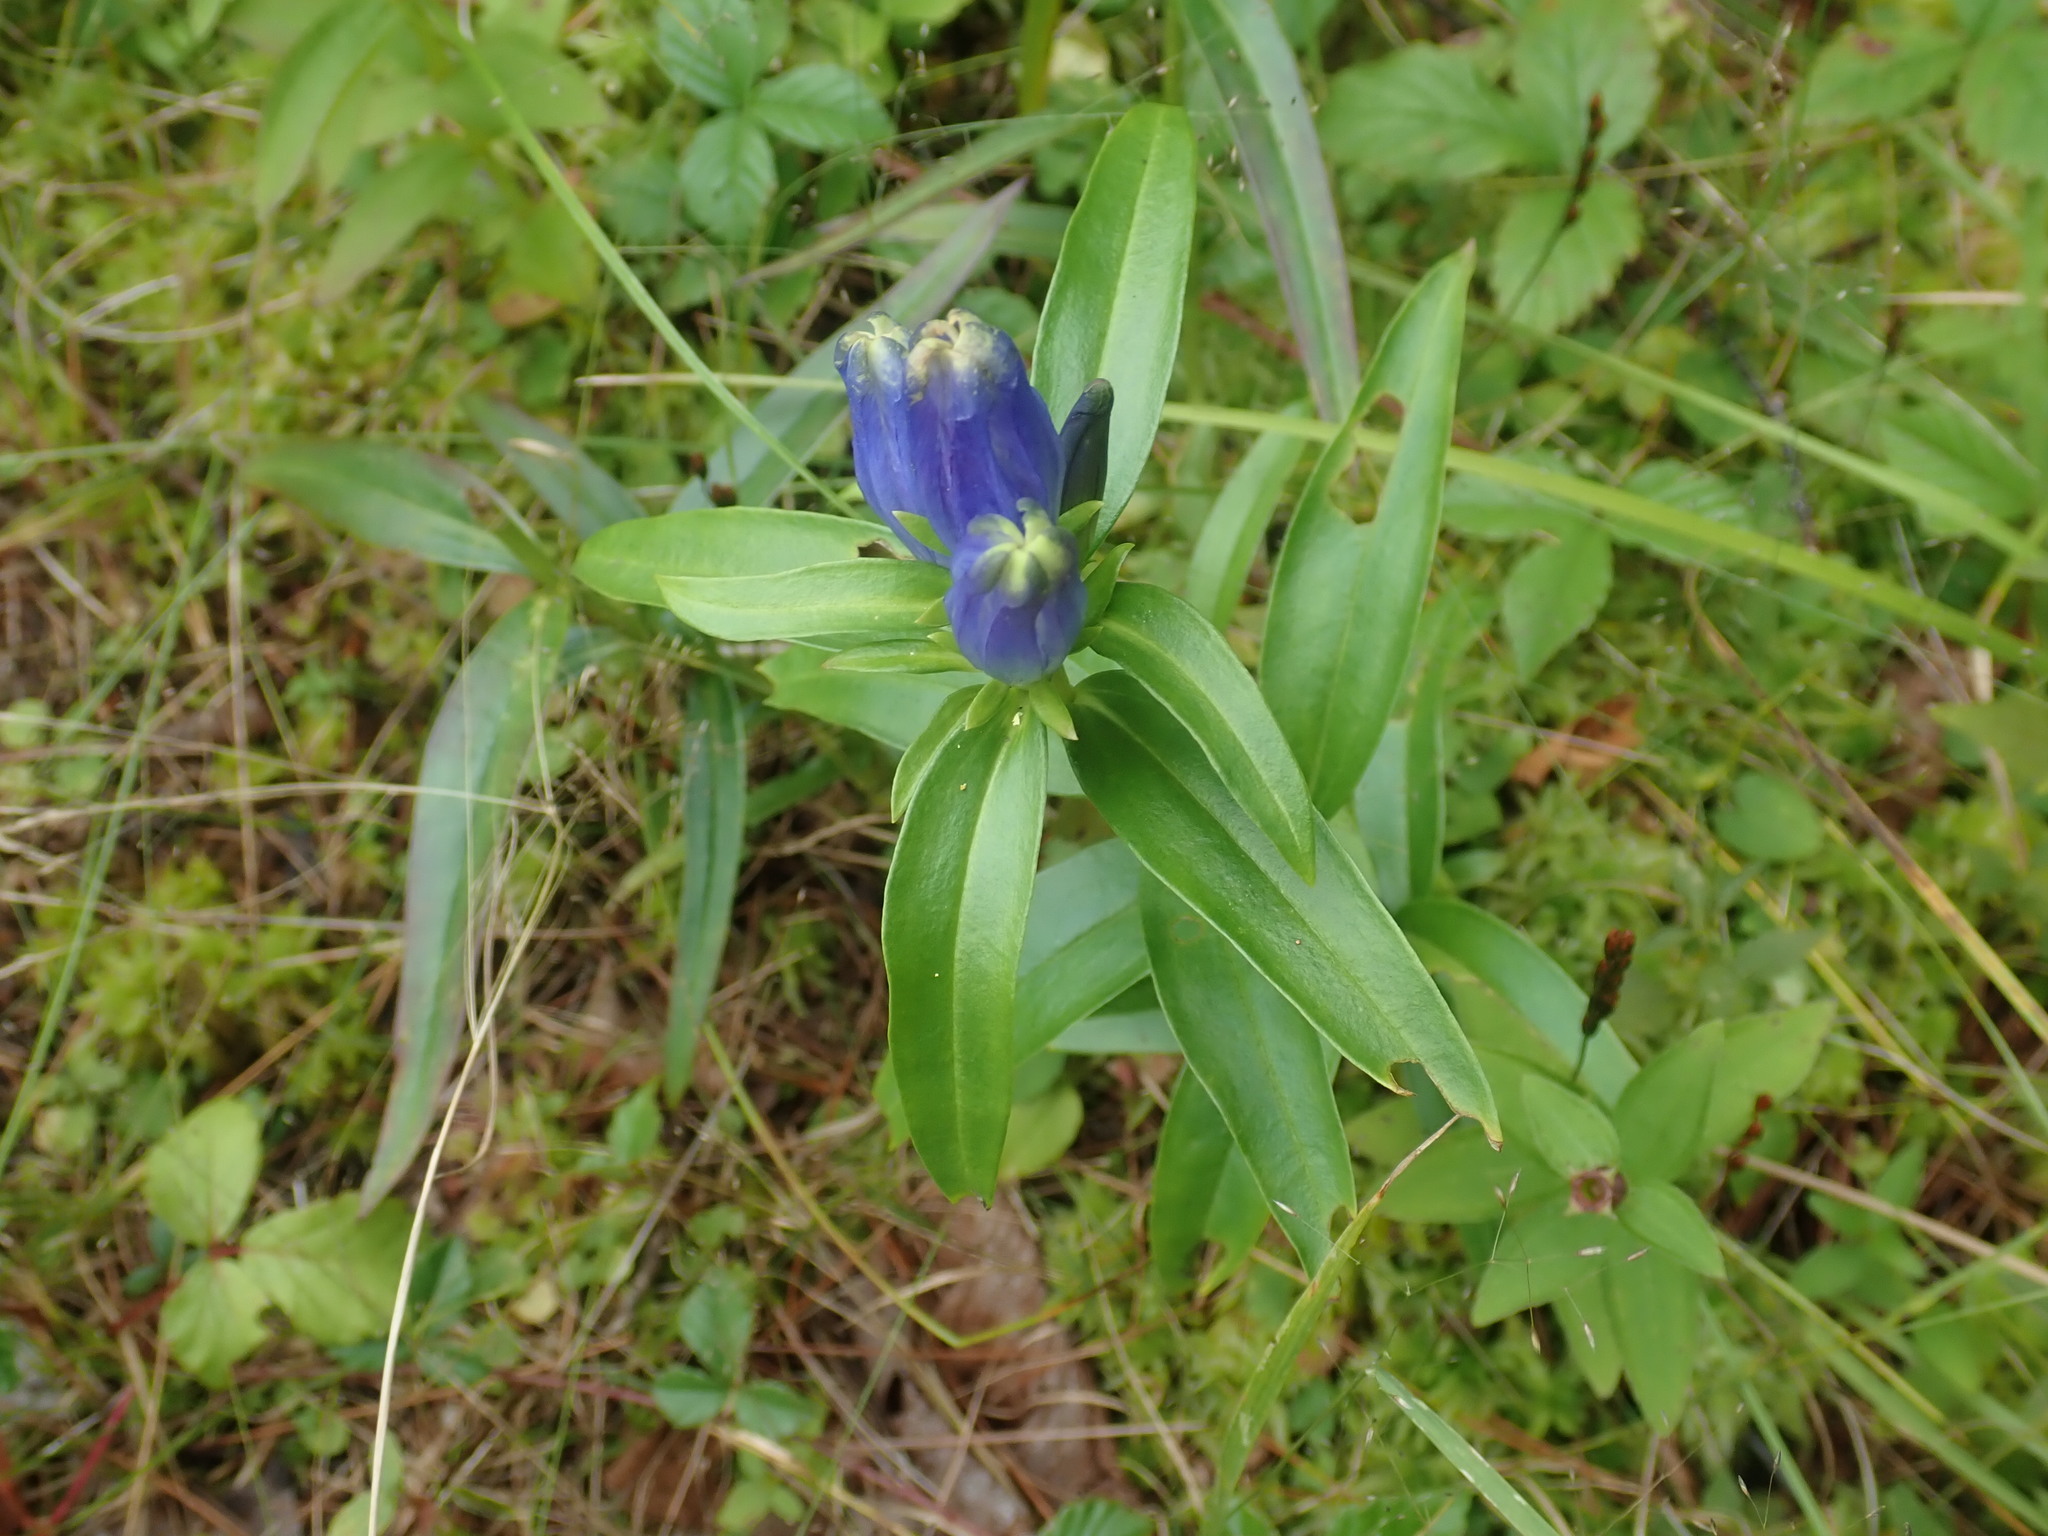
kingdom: Plantae
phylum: Tracheophyta
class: Magnoliopsida
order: Gentianales
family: Gentianaceae
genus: Gentiana
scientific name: Gentiana linearis
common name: Bastard gentian
